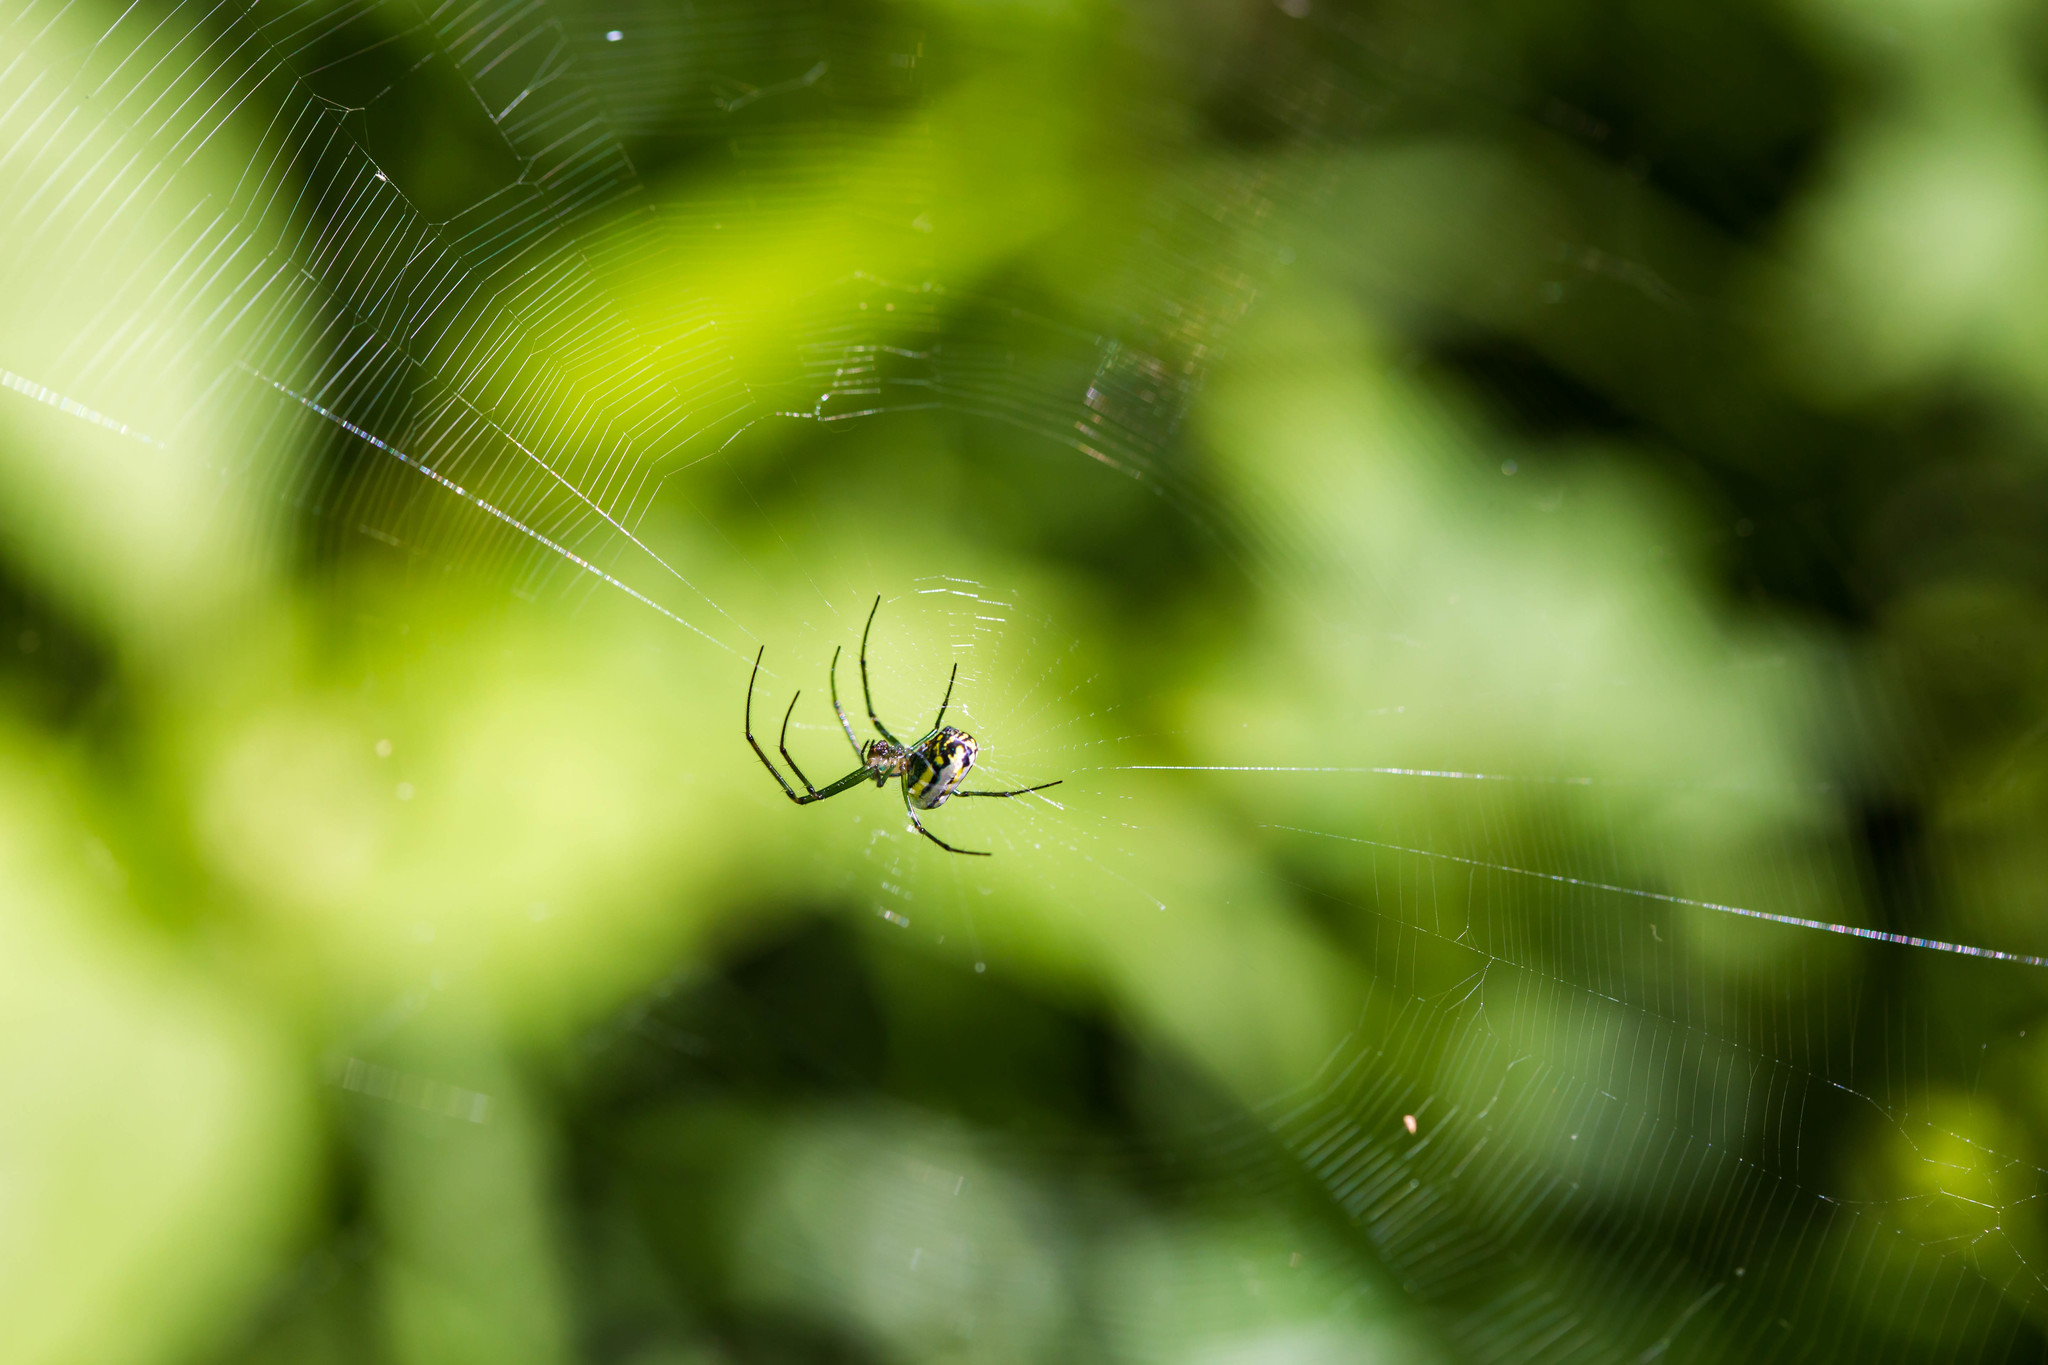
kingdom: Animalia
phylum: Arthropoda
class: Arachnida
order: Araneae
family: Tetragnathidae
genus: Leucauge
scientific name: Leucauge venusta
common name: Longjawed orb weavers
